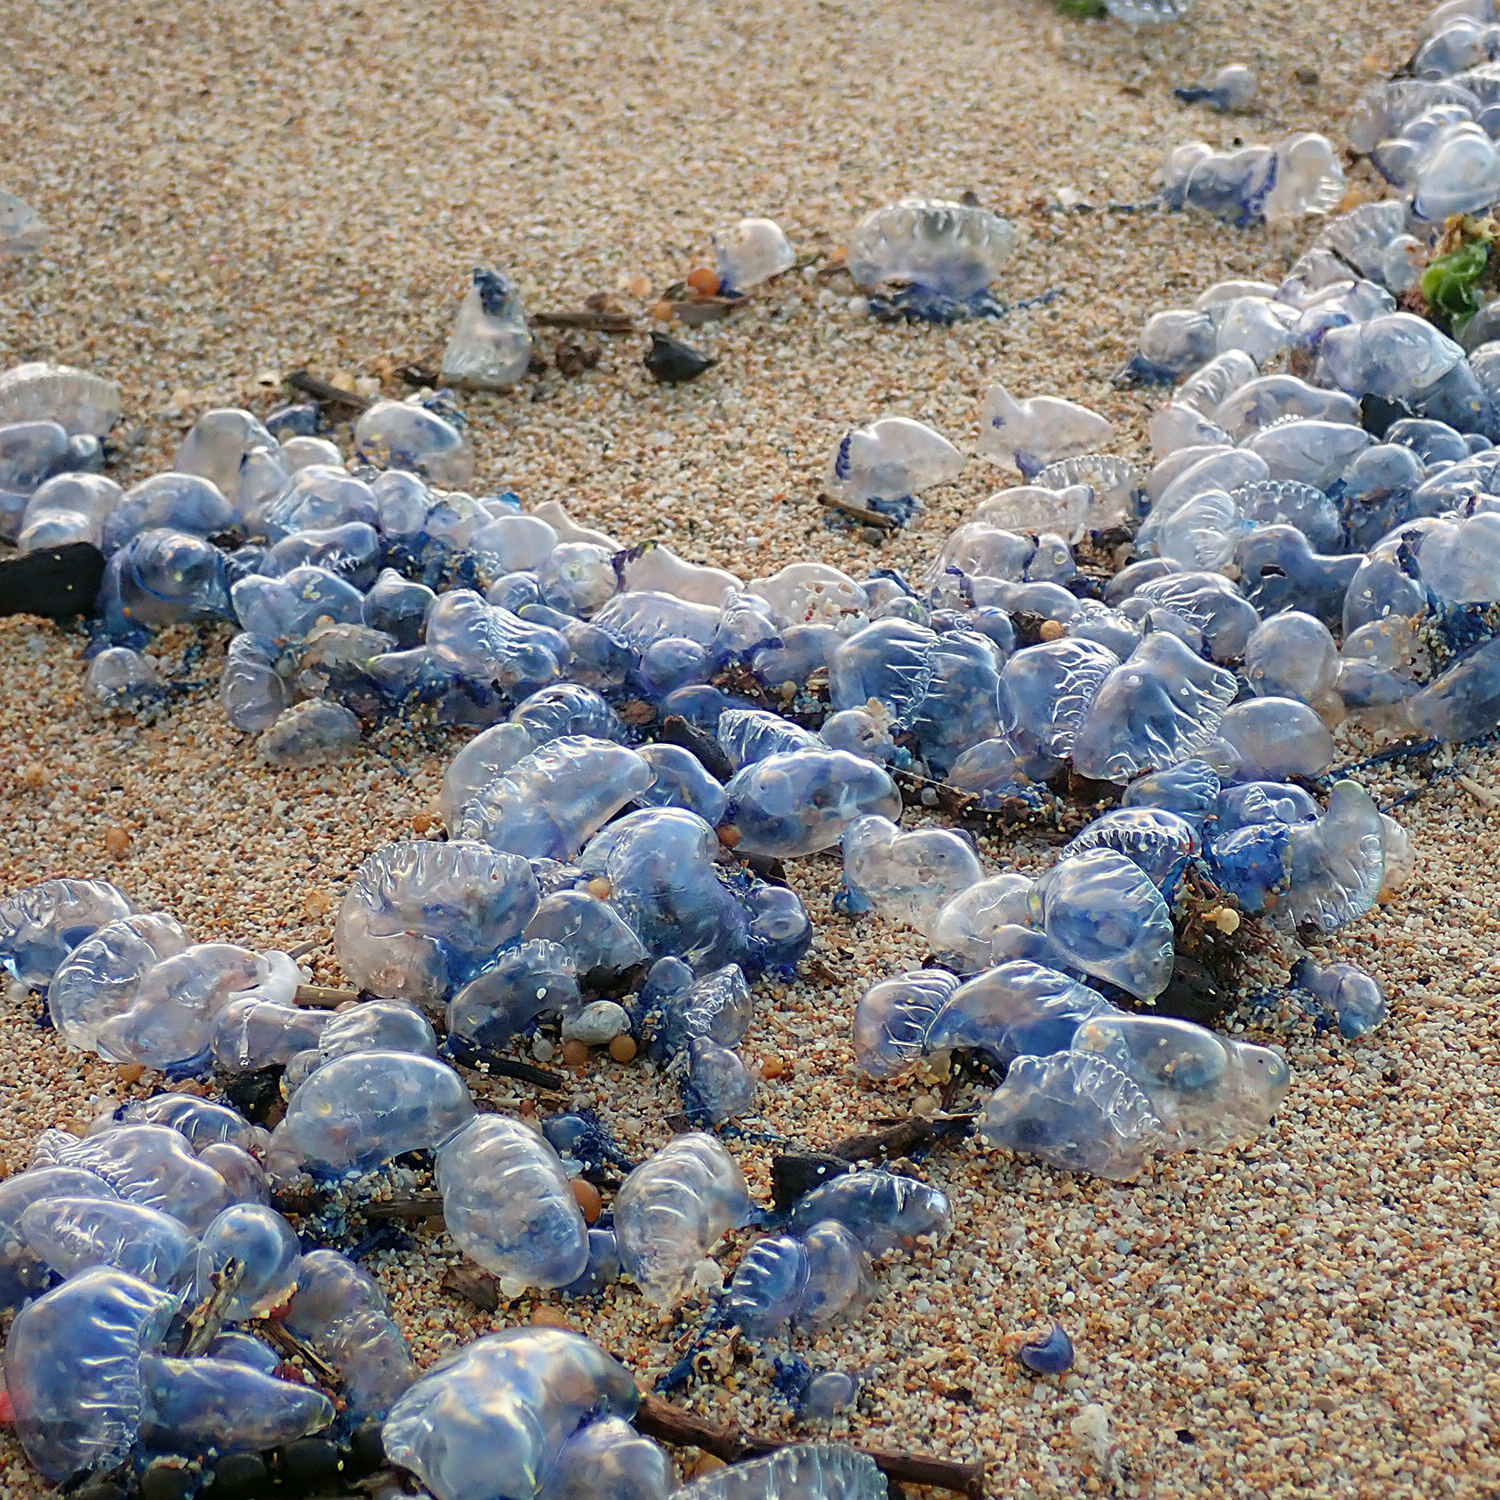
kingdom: Animalia
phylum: Cnidaria
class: Hydrozoa
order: Siphonophorae
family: Physaliidae
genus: Physalia
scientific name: Physalia physalis
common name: Portuguese man-of-war
